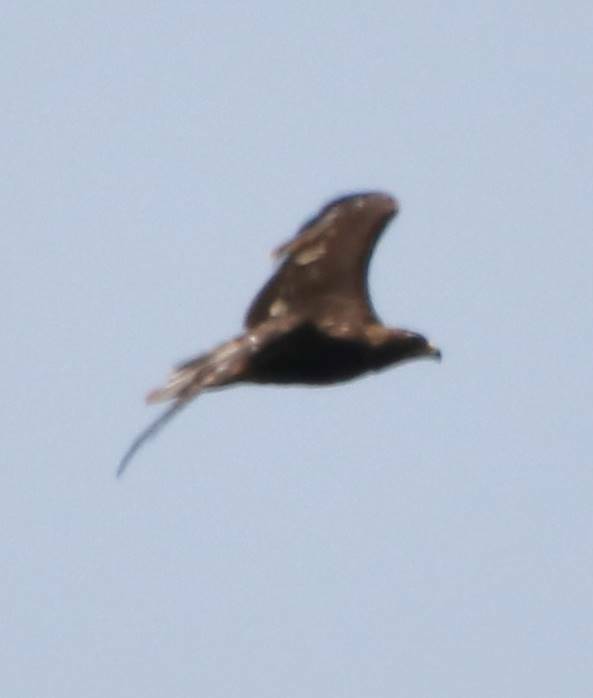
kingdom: Animalia
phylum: Chordata
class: Aves
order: Accipitriformes
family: Accipitridae
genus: Aquila
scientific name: Aquila clanga
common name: Greater spotted eagle
